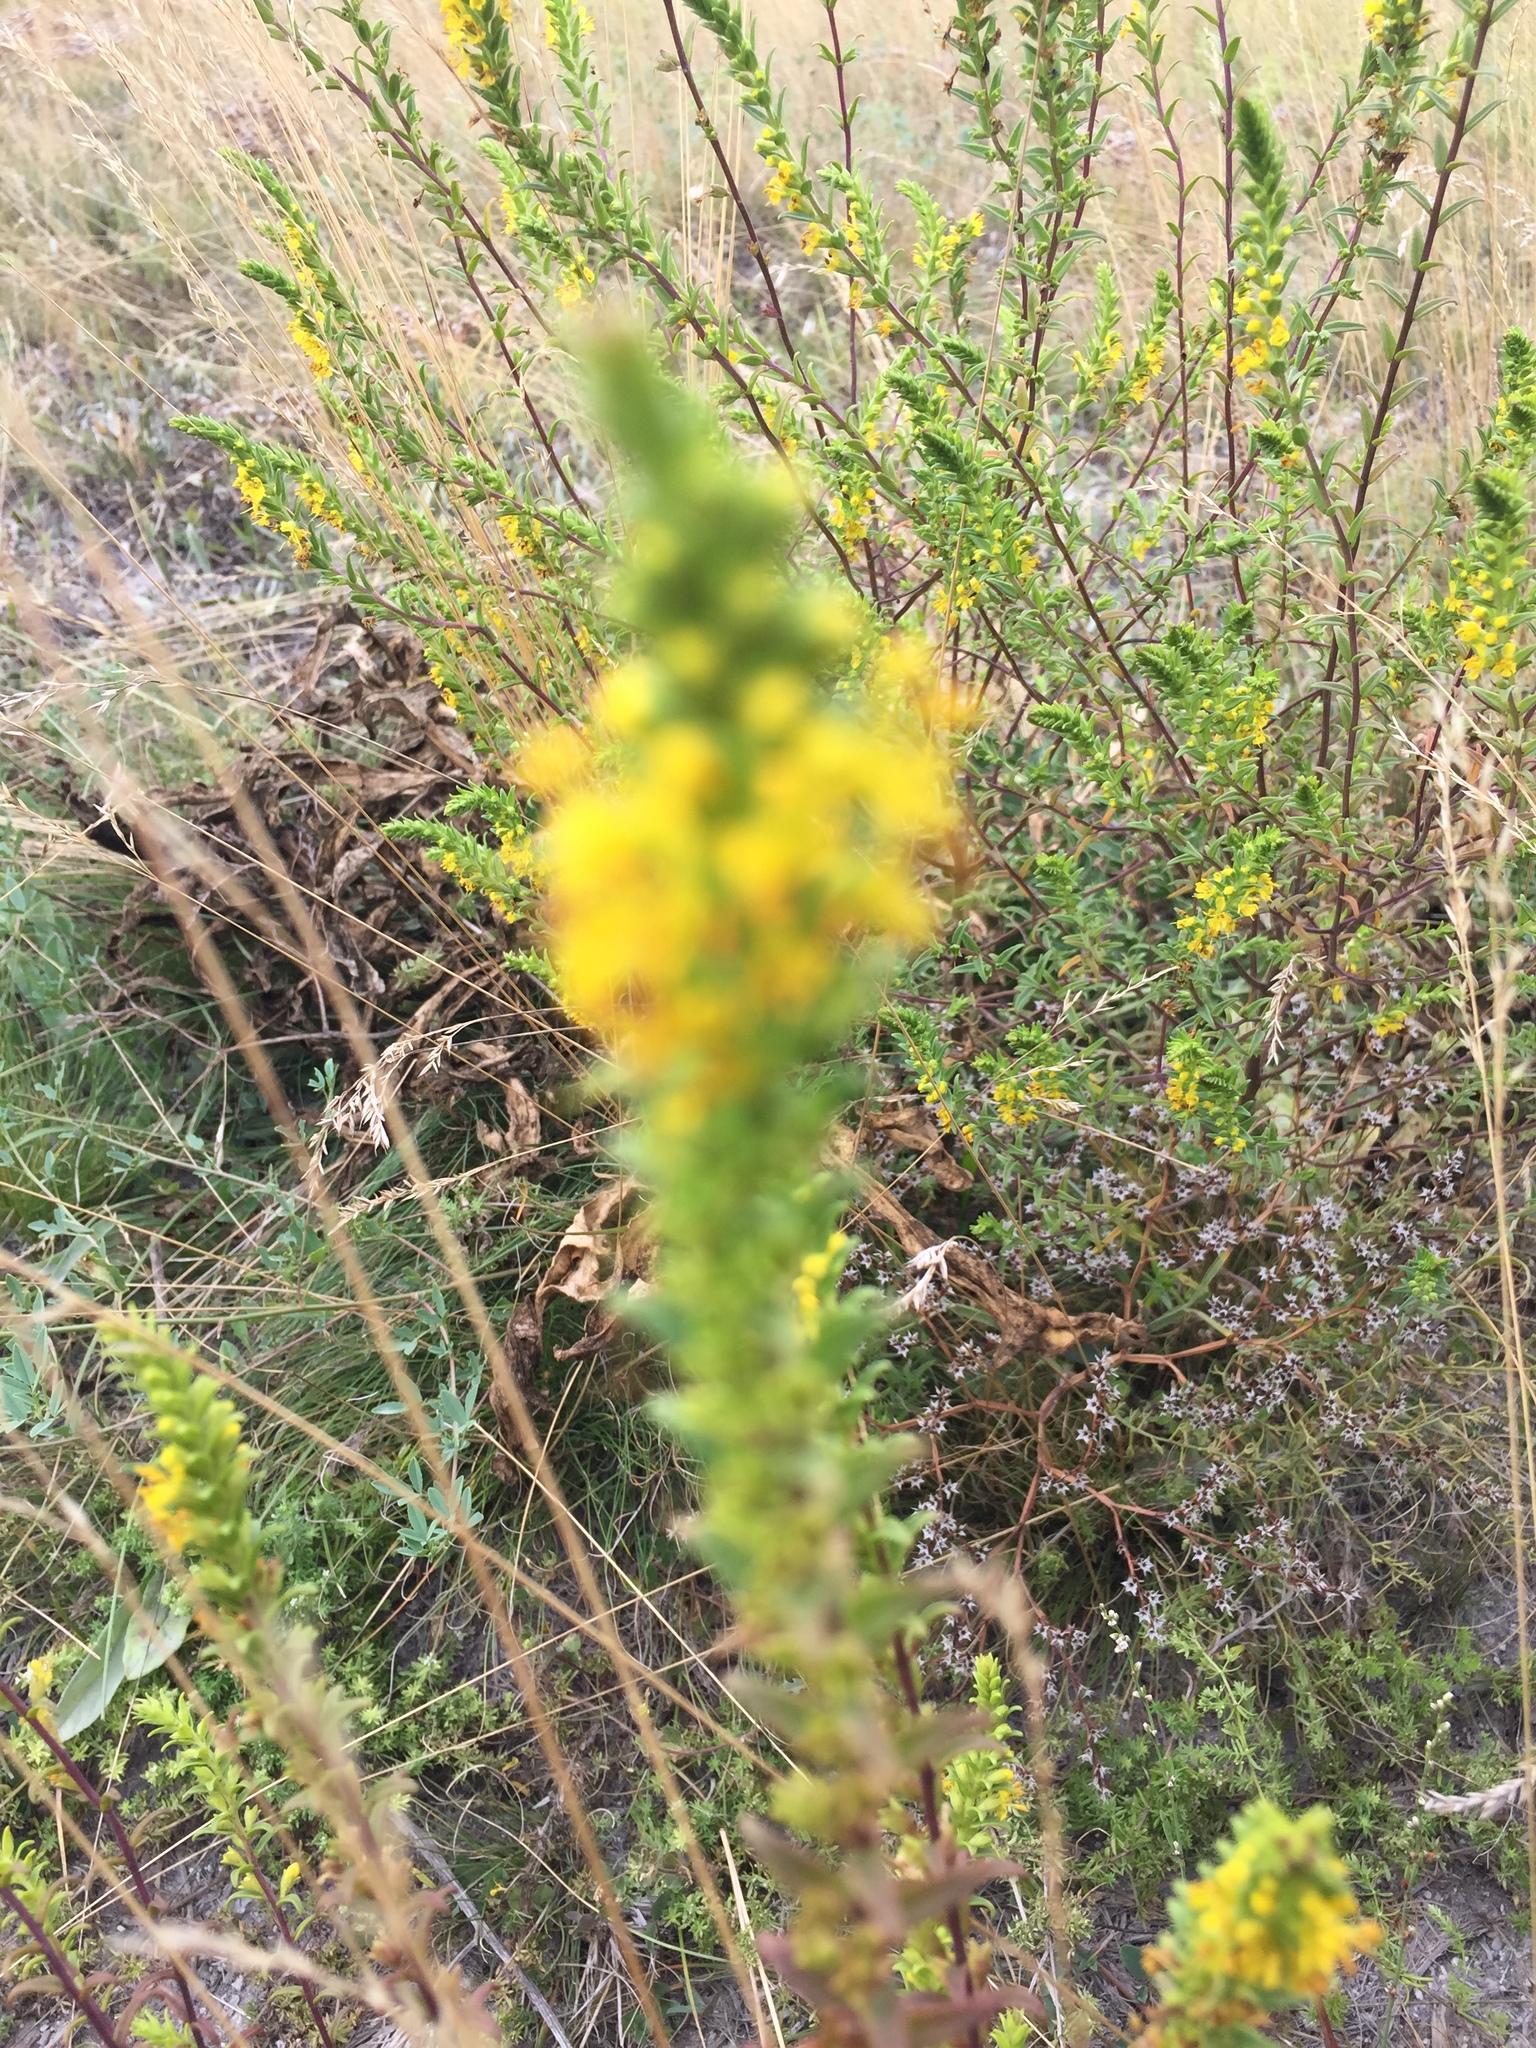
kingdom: Plantae
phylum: Tracheophyta
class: Magnoliopsida
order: Lamiales
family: Orobanchaceae
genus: Odontites
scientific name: Odontites luteus
